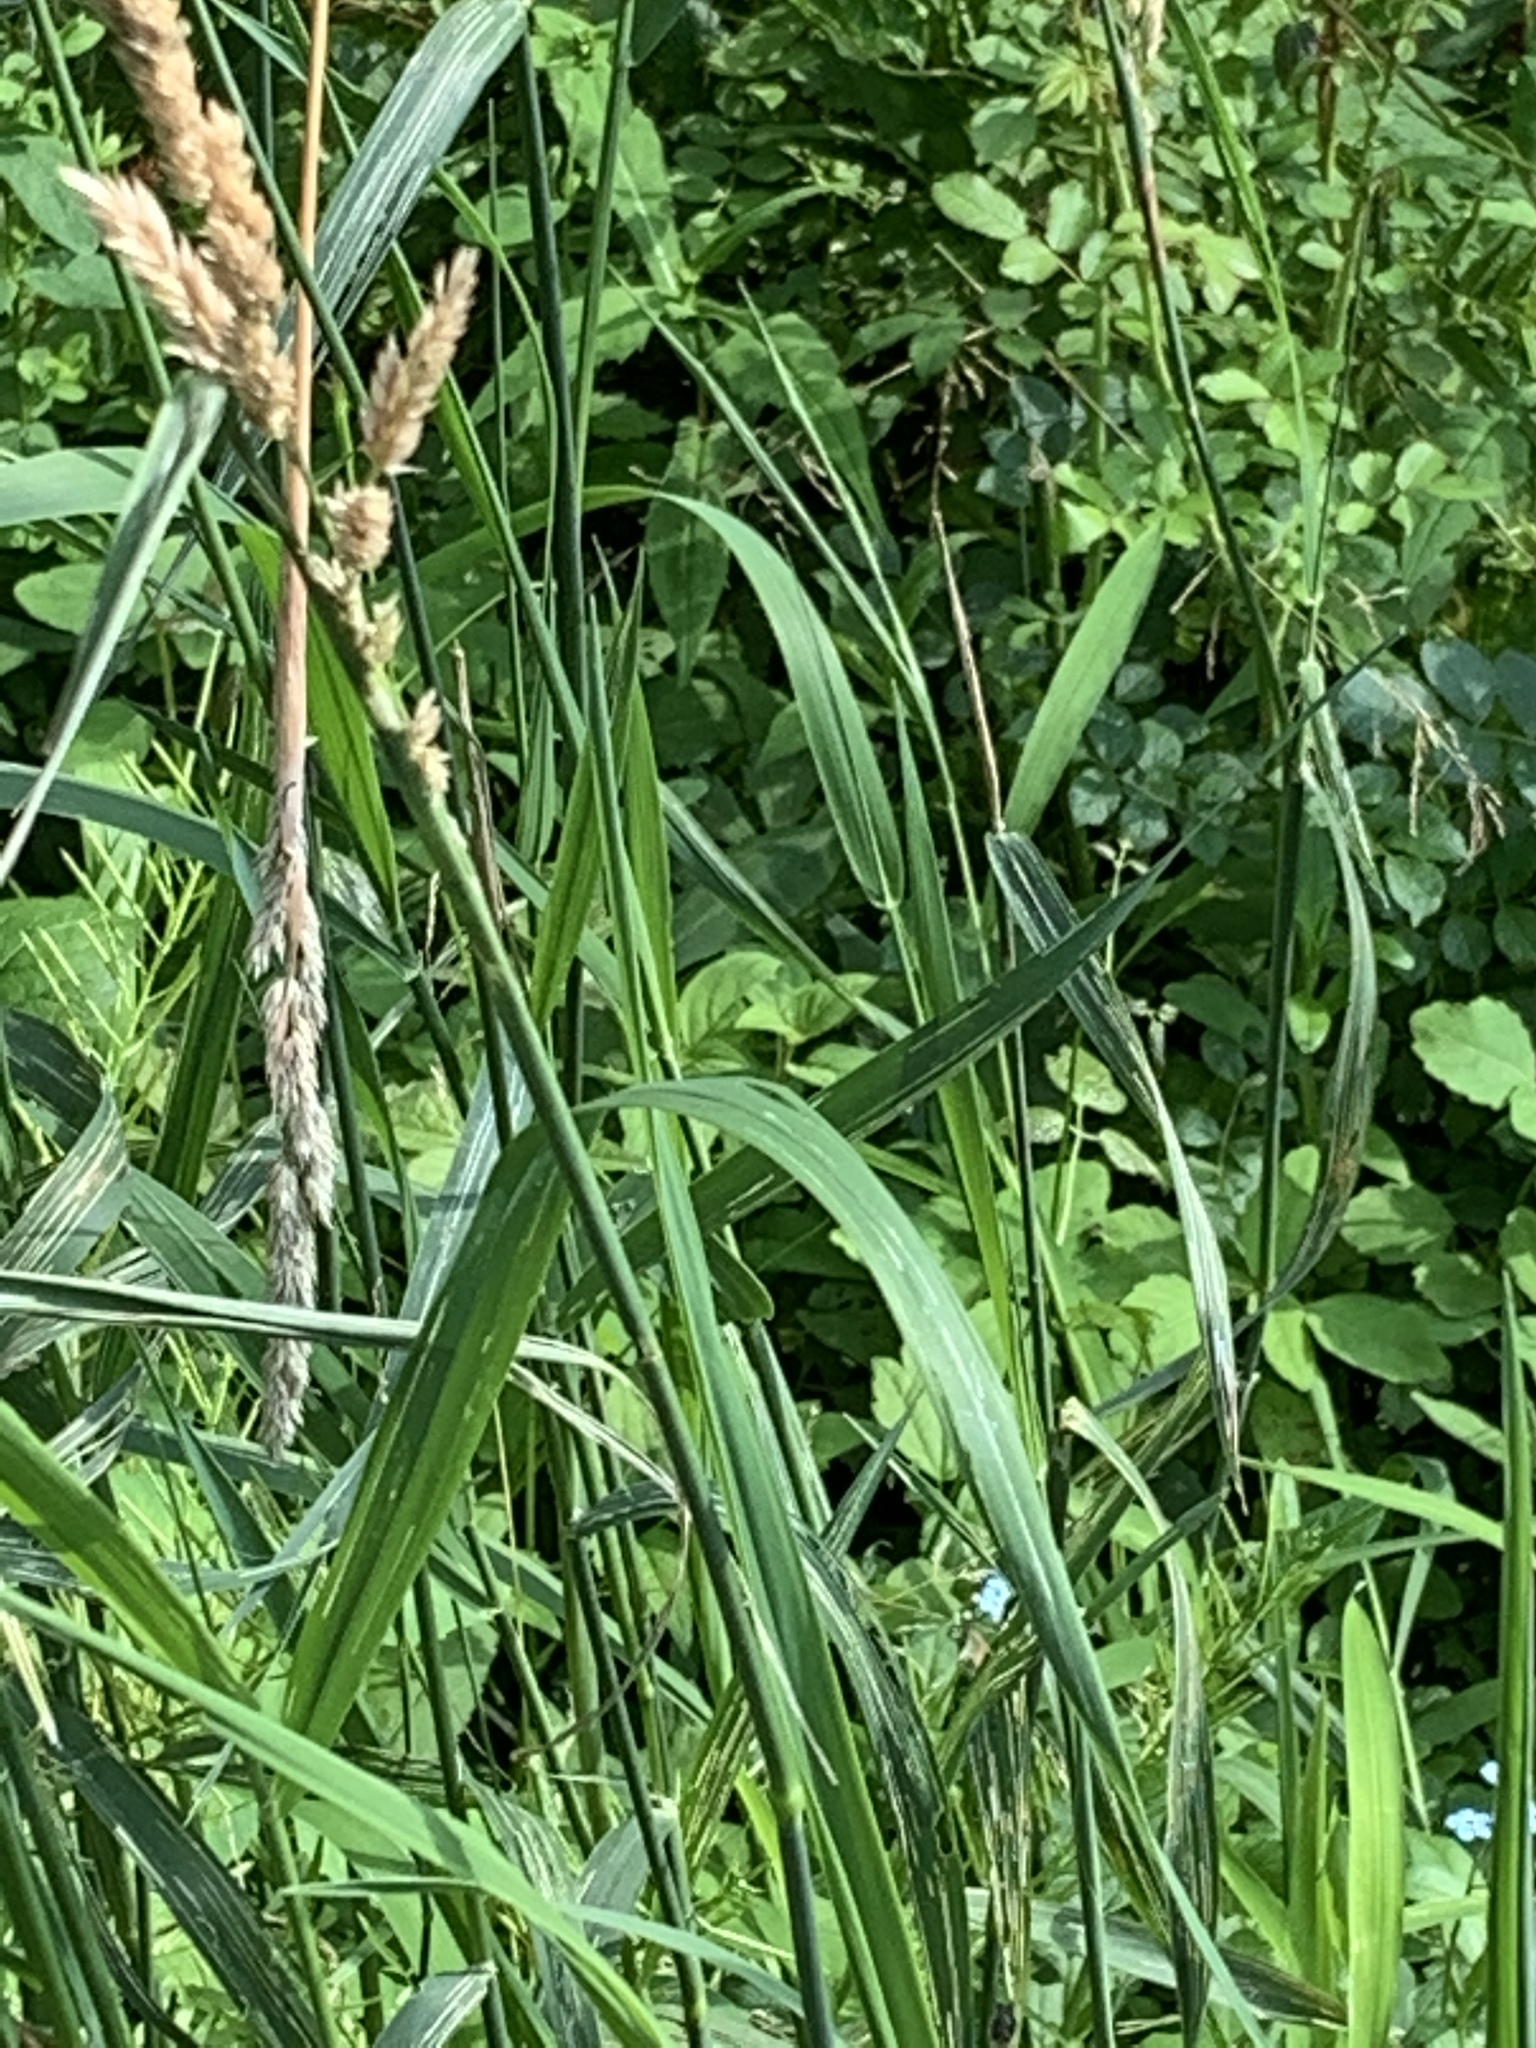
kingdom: Plantae
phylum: Tracheophyta
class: Liliopsida
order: Poales
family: Poaceae
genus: Phalaris
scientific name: Phalaris arundinacea
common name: Reed canary-grass
